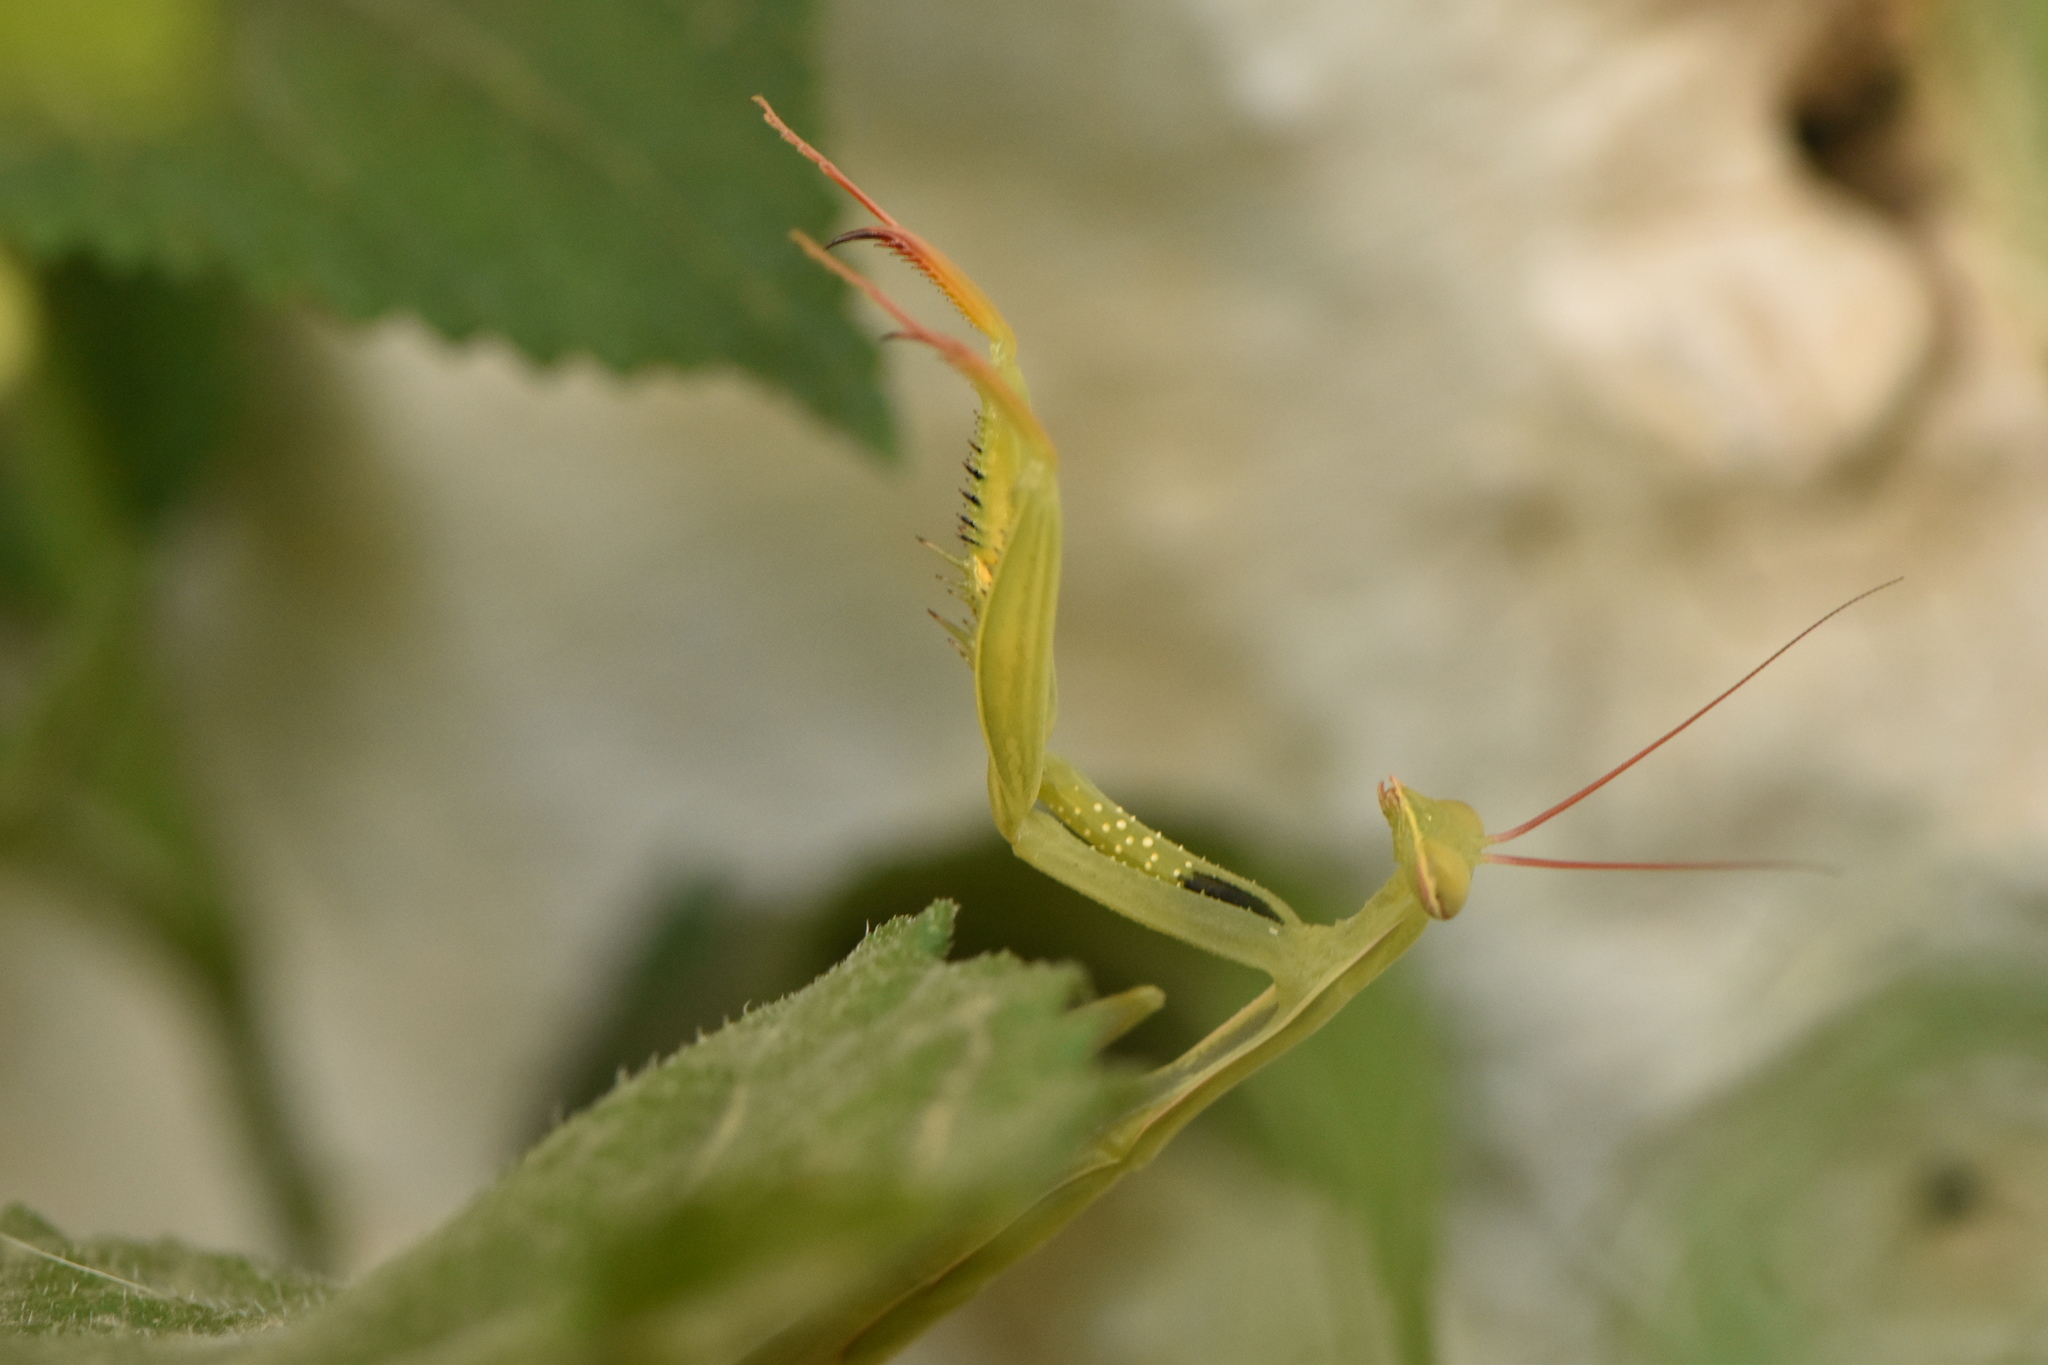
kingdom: Animalia
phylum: Arthropoda
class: Insecta
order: Mantodea
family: Mantidae
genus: Mantis
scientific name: Mantis religiosa
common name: Praying mantis
